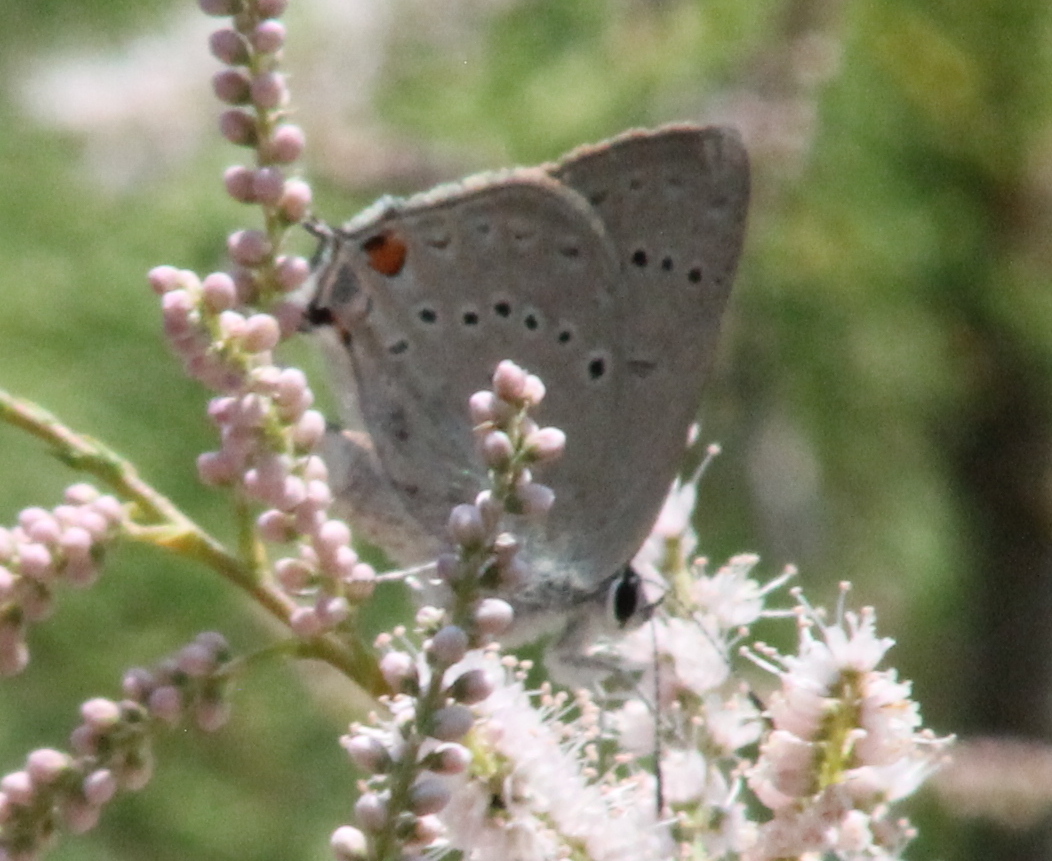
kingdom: Animalia
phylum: Arthropoda
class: Insecta
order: Lepidoptera
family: Lycaenidae
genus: Strymon
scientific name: Strymon sylvinus
